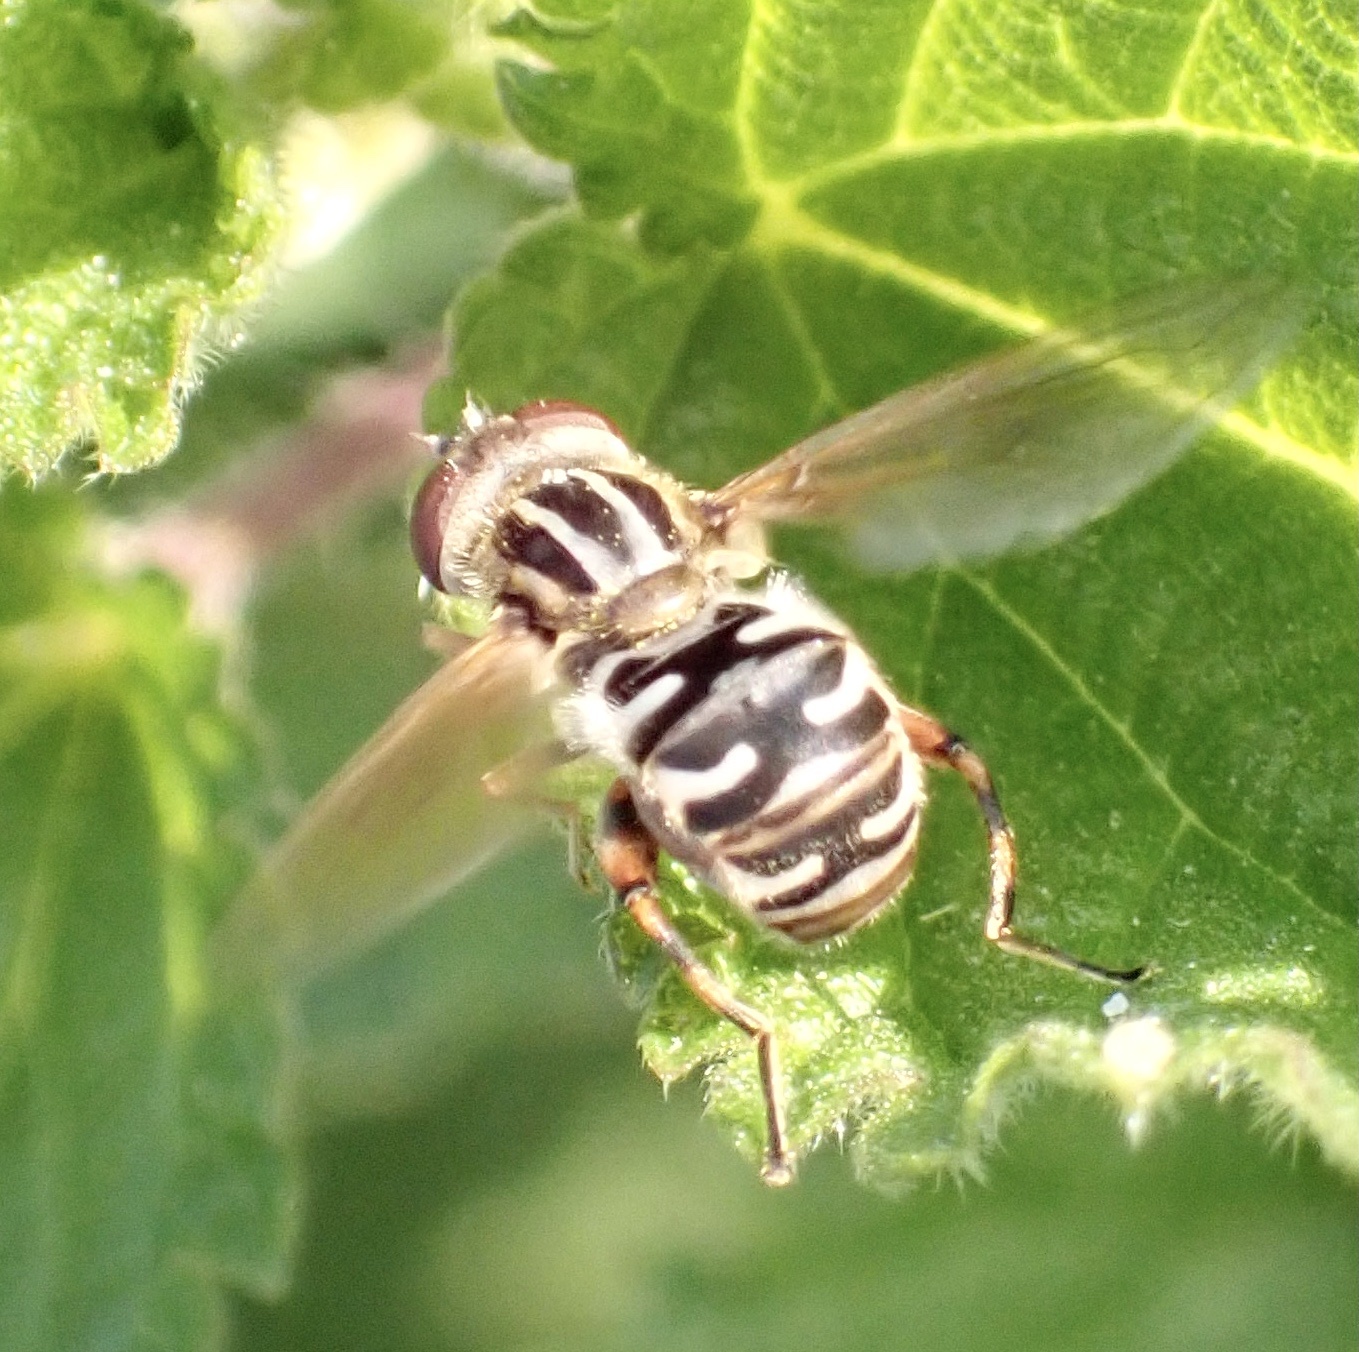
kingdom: Animalia
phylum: Arthropoda
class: Insecta
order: Diptera
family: Syrphidae
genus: Eurimyia
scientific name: Eurimyia lineatus
